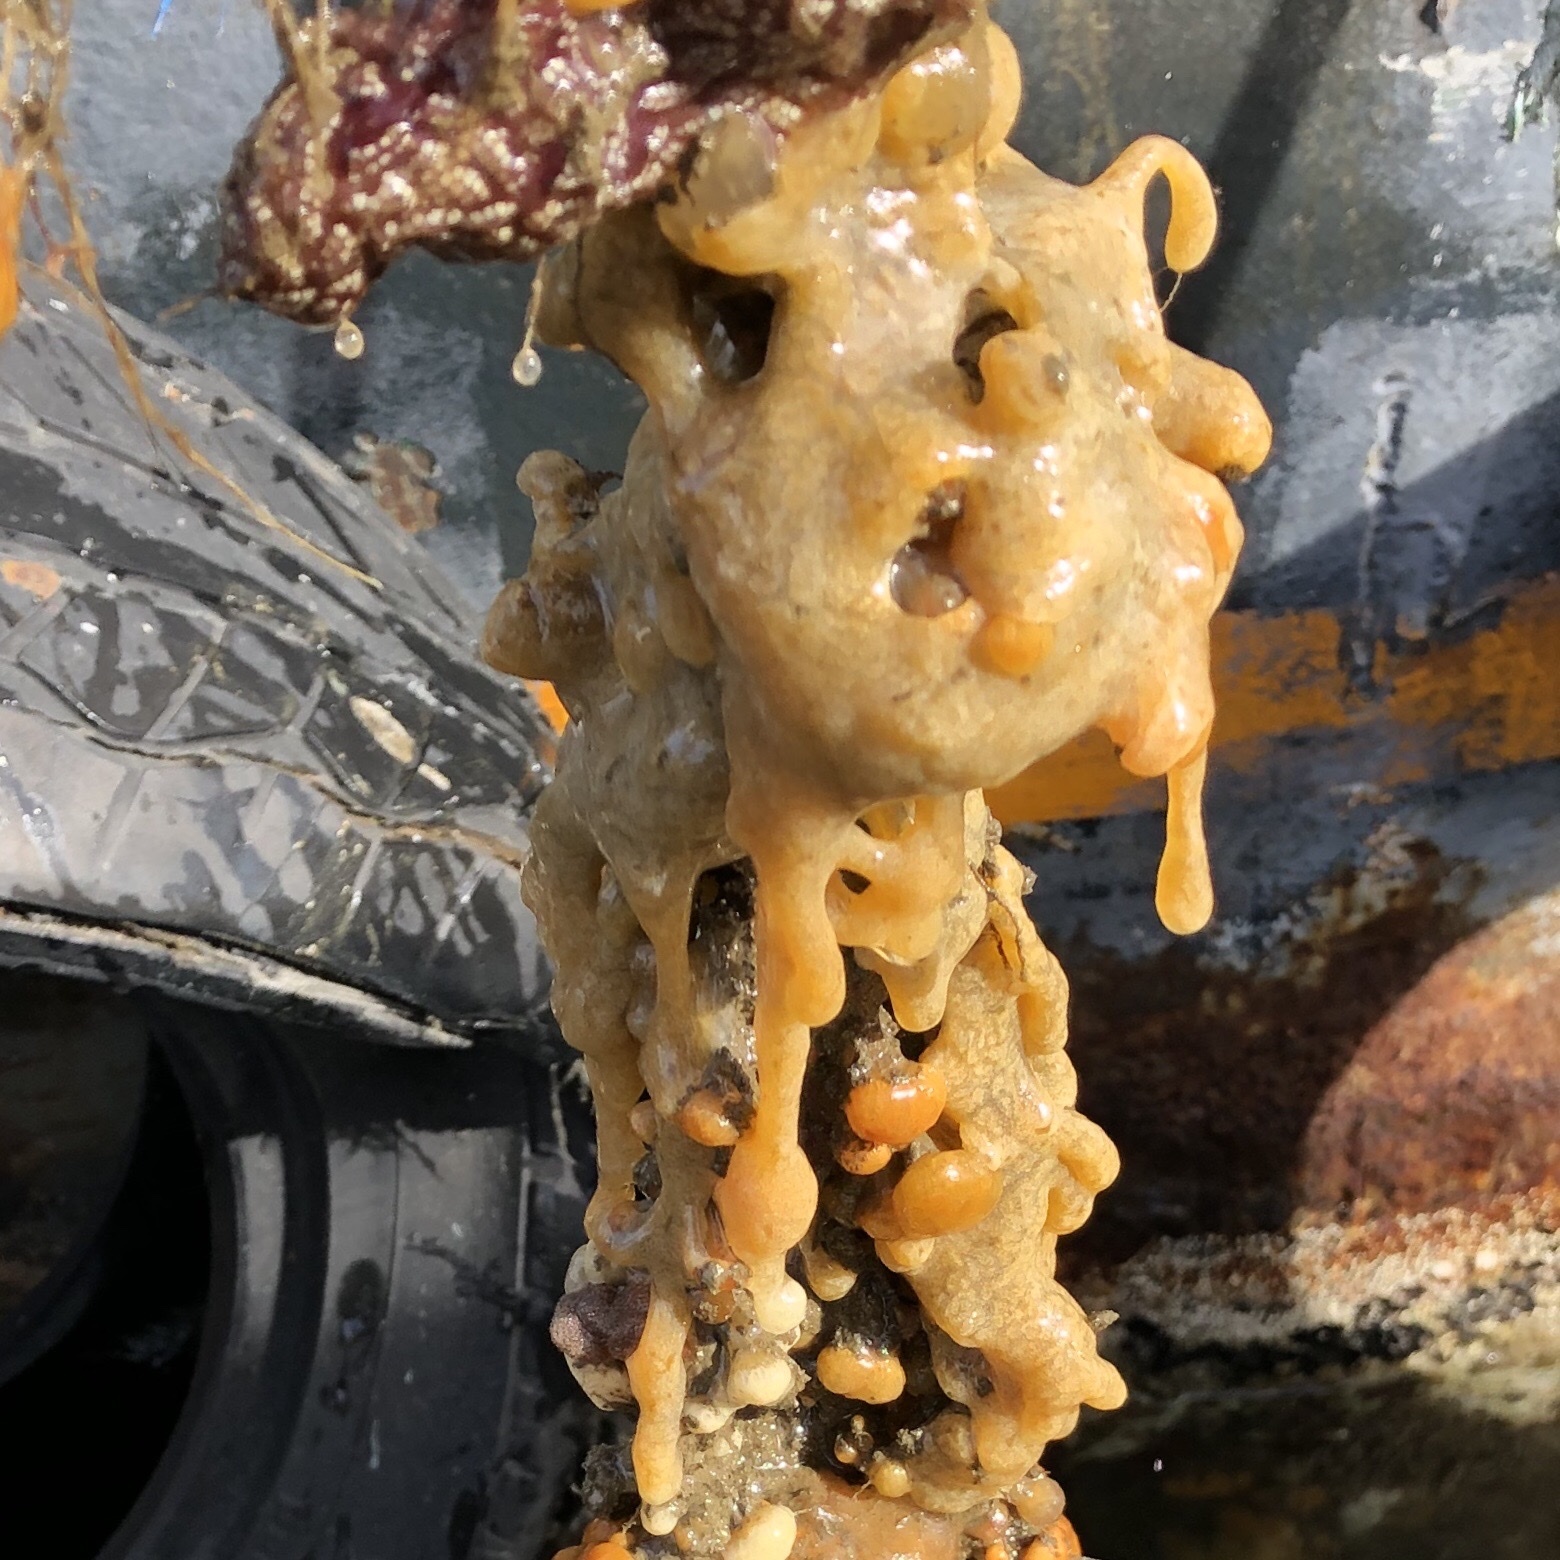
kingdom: Animalia
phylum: Chordata
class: Ascidiacea
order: Aplousobranchia
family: Didemnidae
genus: Didemnum
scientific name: Didemnum vexillum
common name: Compound sea squirt
